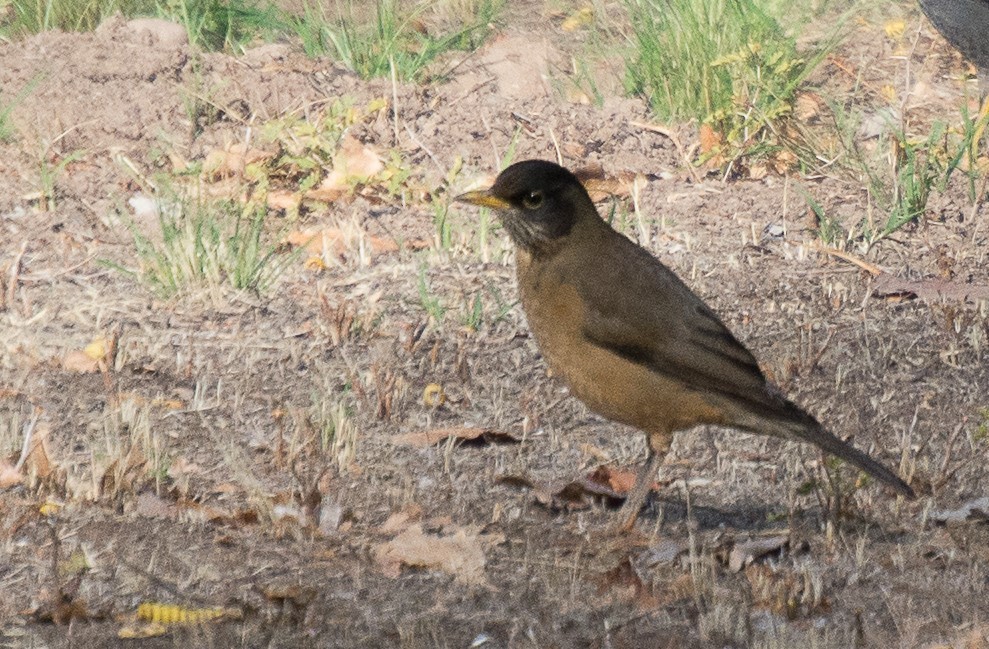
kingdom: Animalia
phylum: Chordata
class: Aves
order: Passeriformes
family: Turdidae
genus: Turdus
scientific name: Turdus falcklandii
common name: Austral thrush
